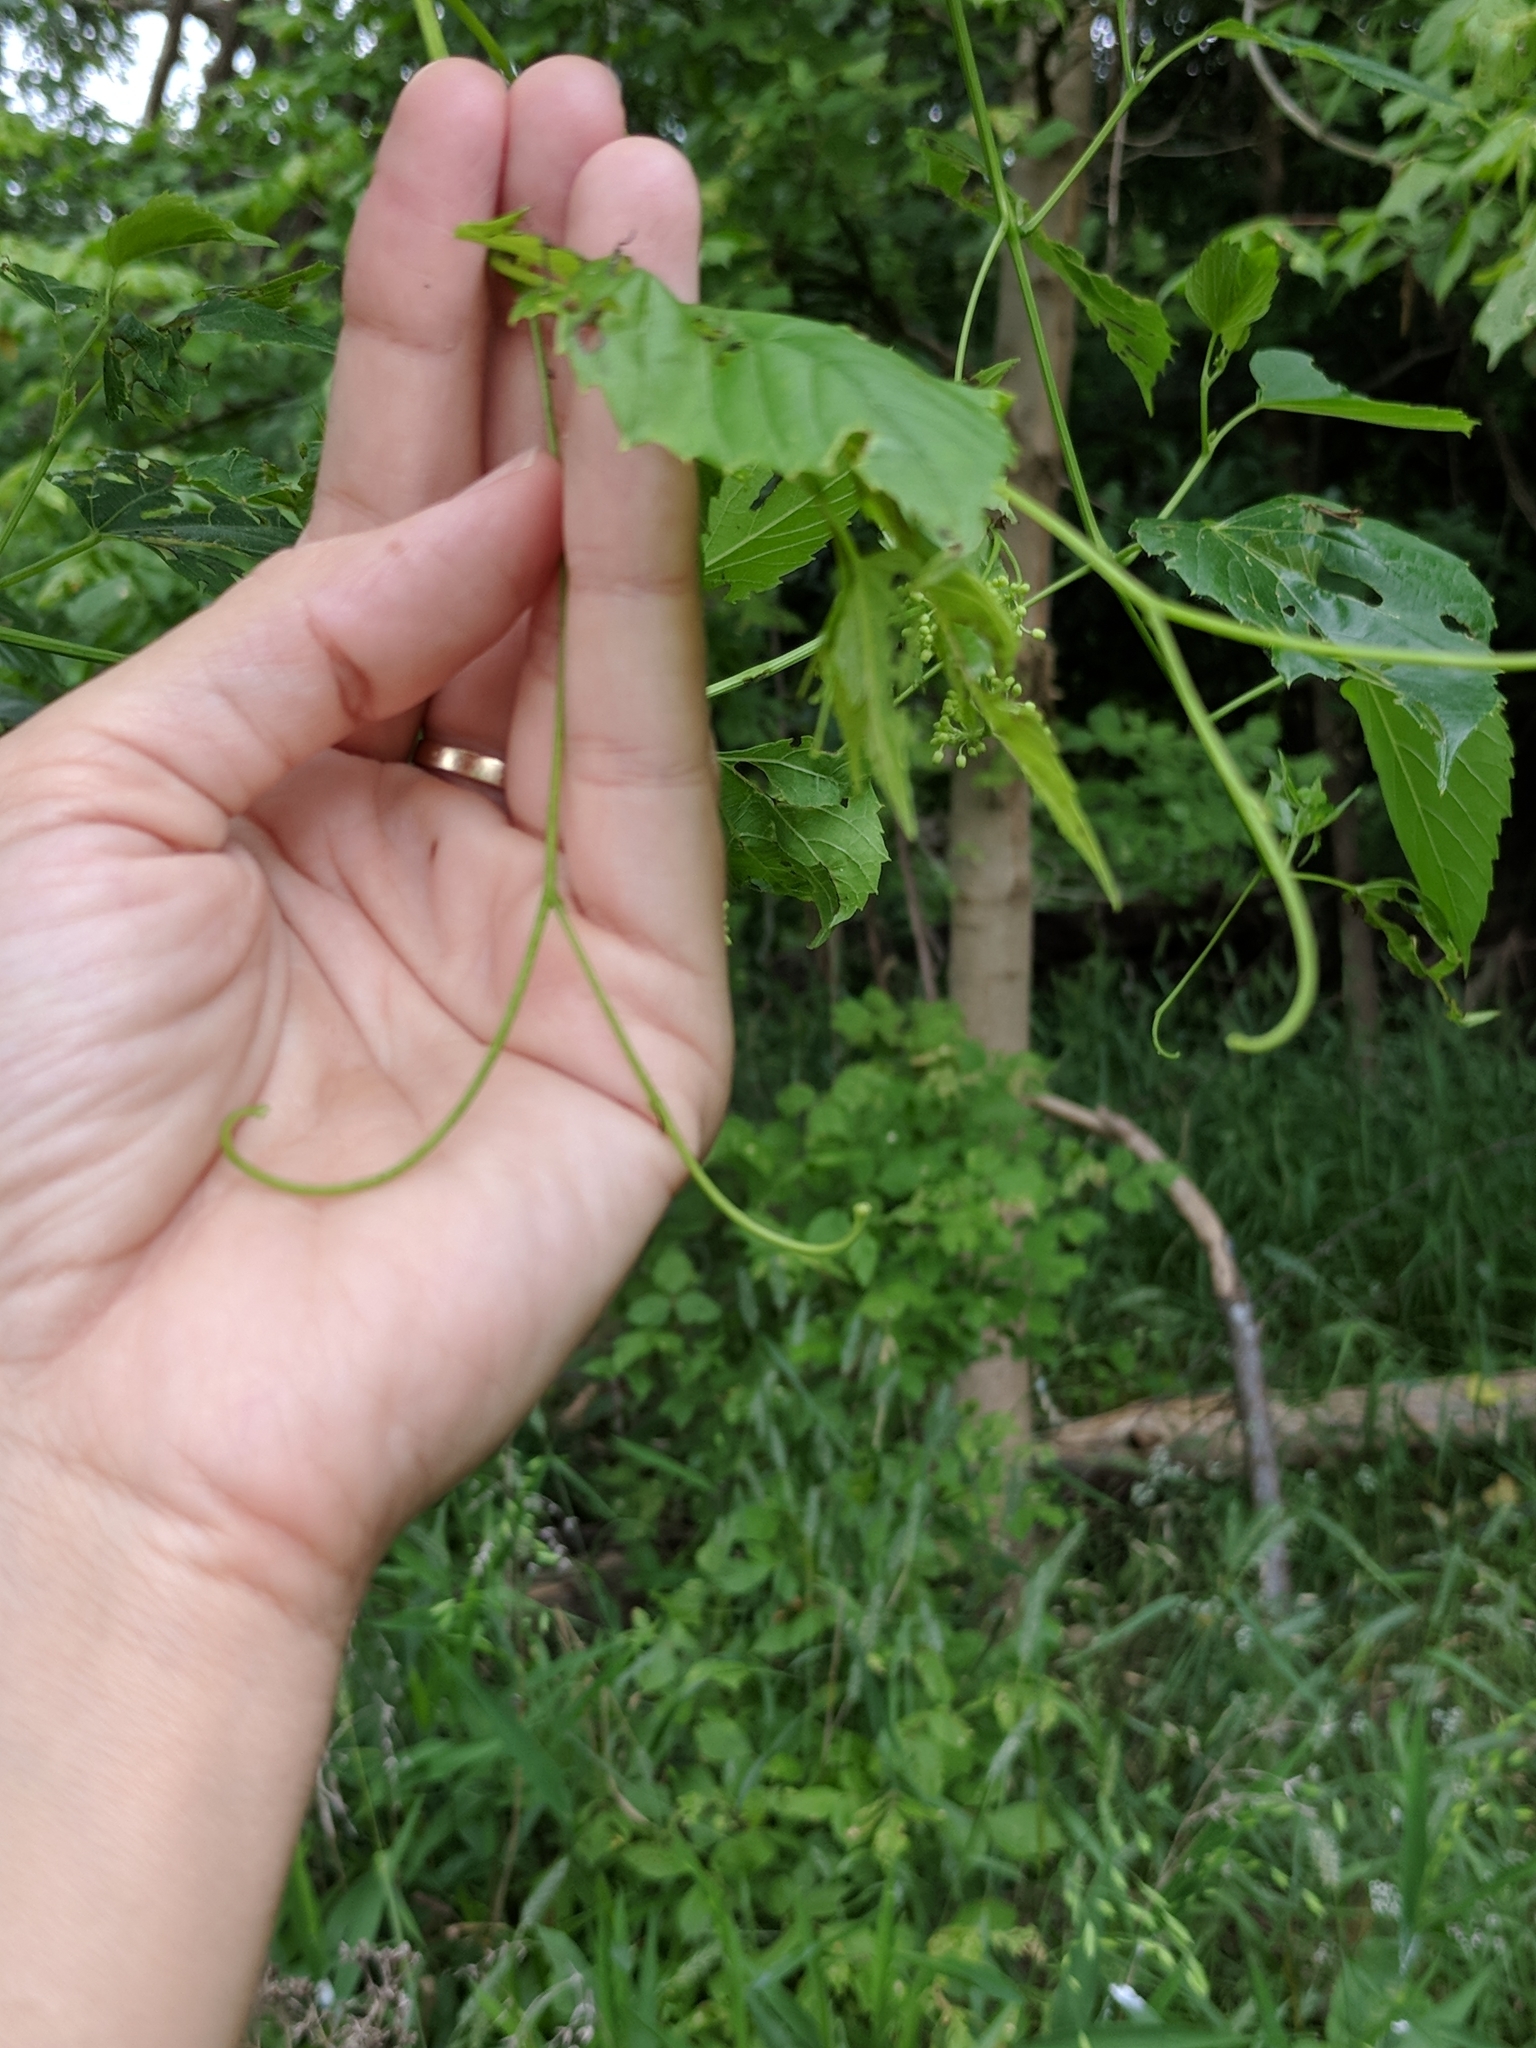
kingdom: Plantae
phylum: Tracheophyta
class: Magnoliopsida
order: Vitales
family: Vitaceae
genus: Ampelopsis
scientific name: Ampelopsis cordata
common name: Heart-leaf ampelopsis
